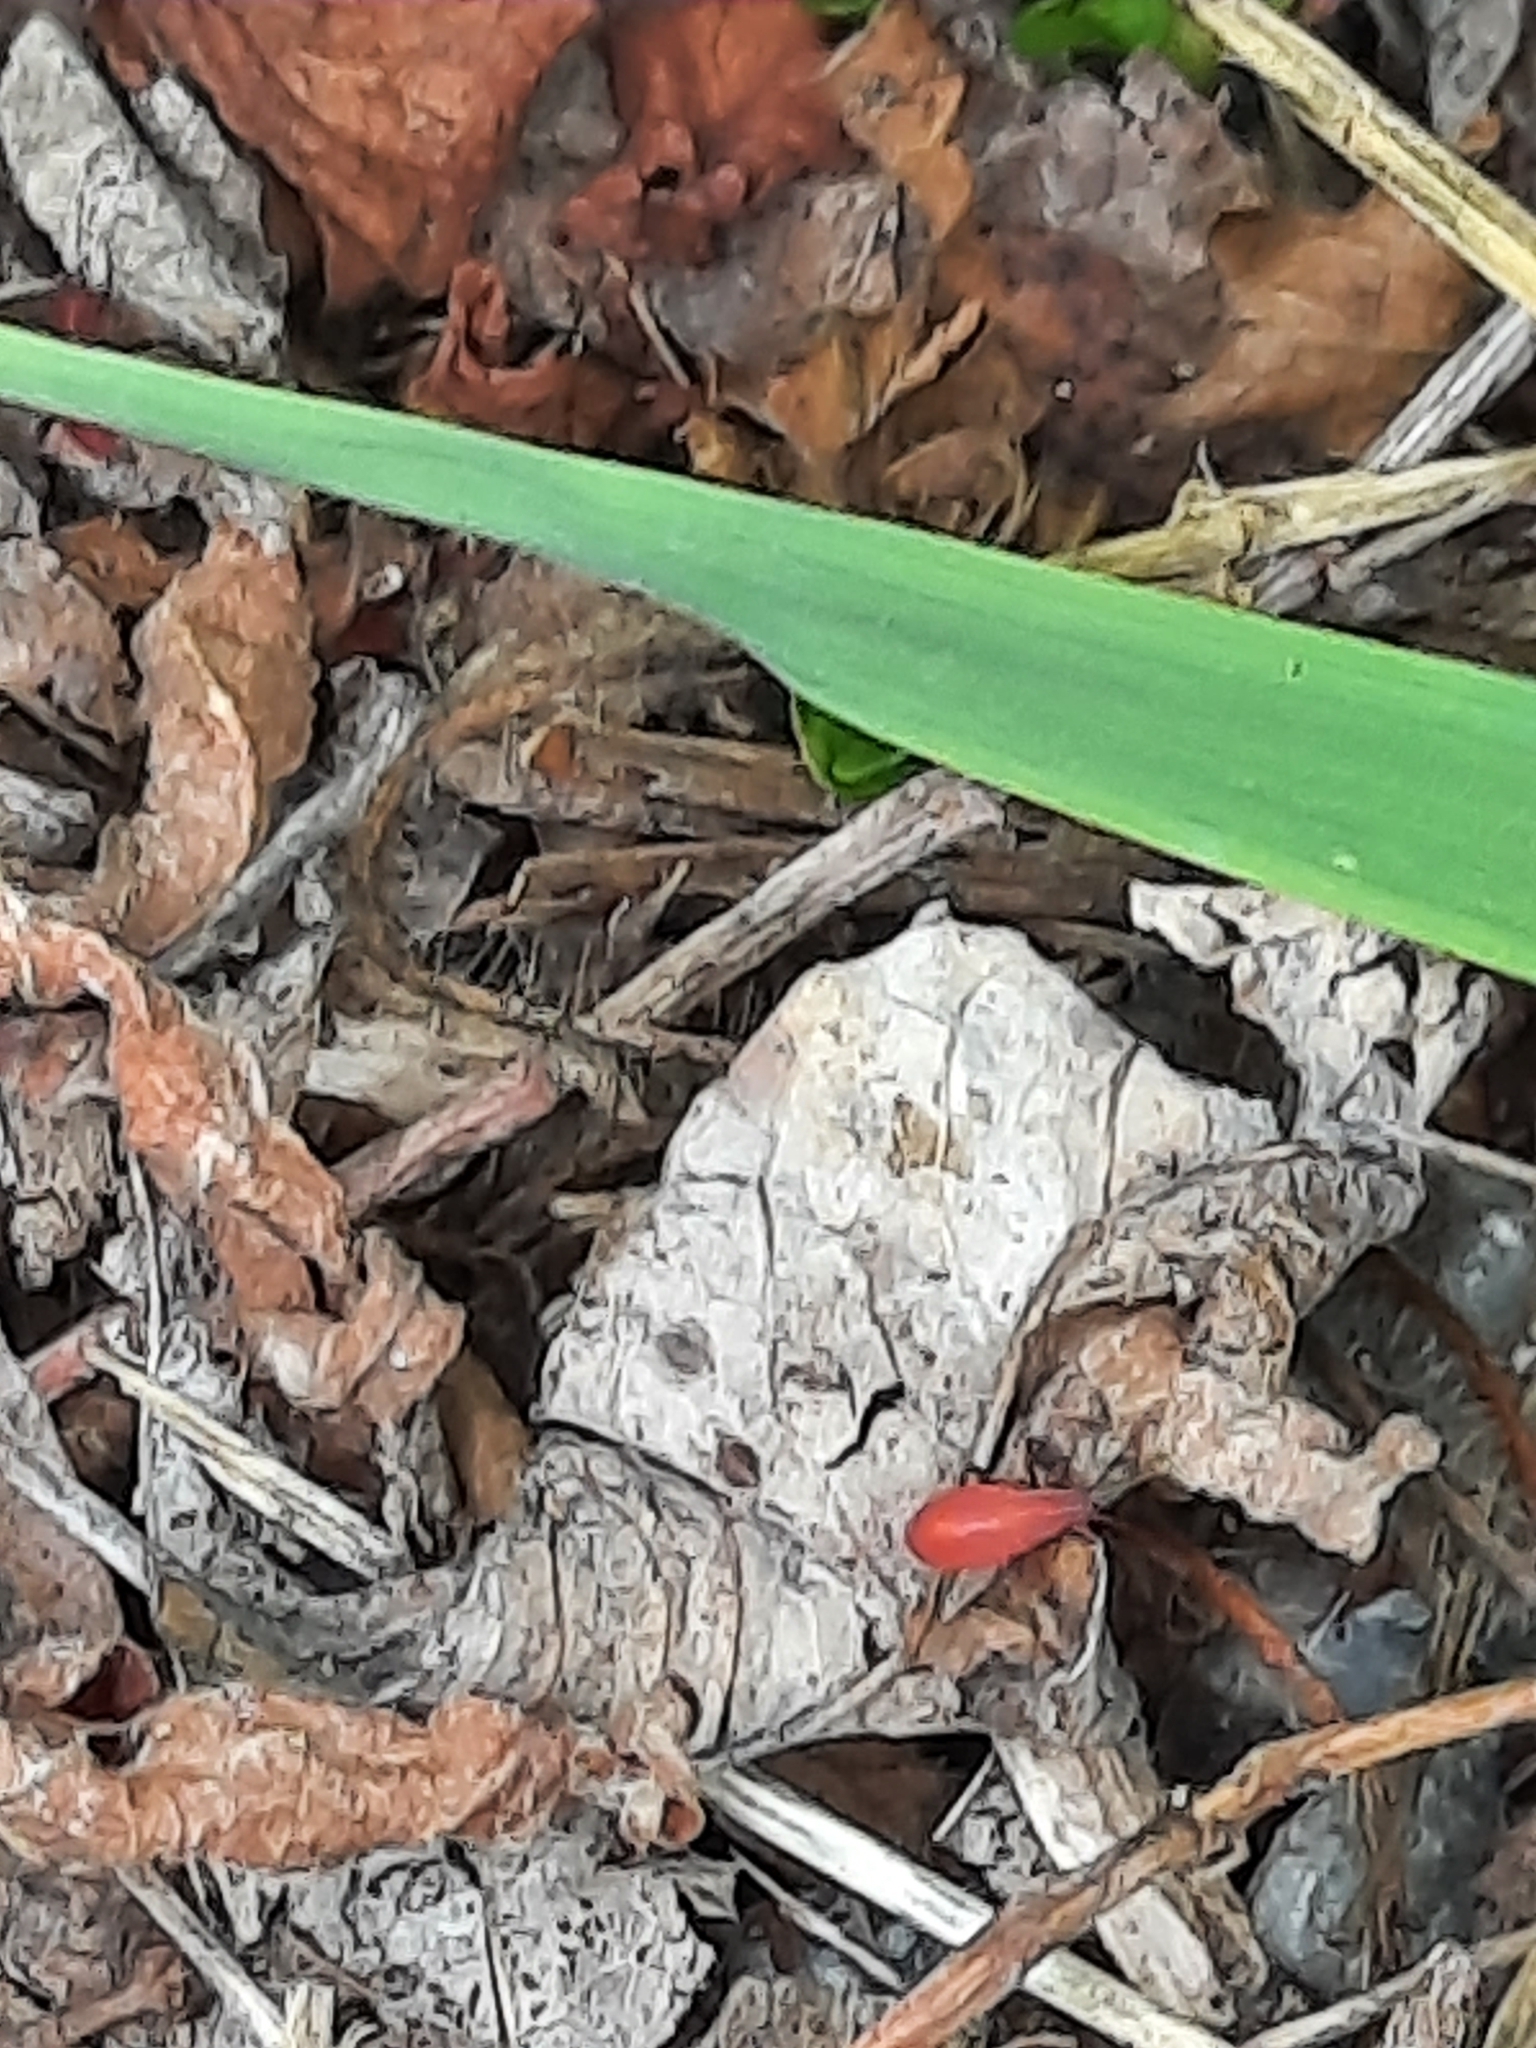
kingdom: Animalia
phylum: Arthropoda
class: Insecta
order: Hemiptera
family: Rhopalidae
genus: Boisea
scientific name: Boisea trivittata
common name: Boxelder bug
